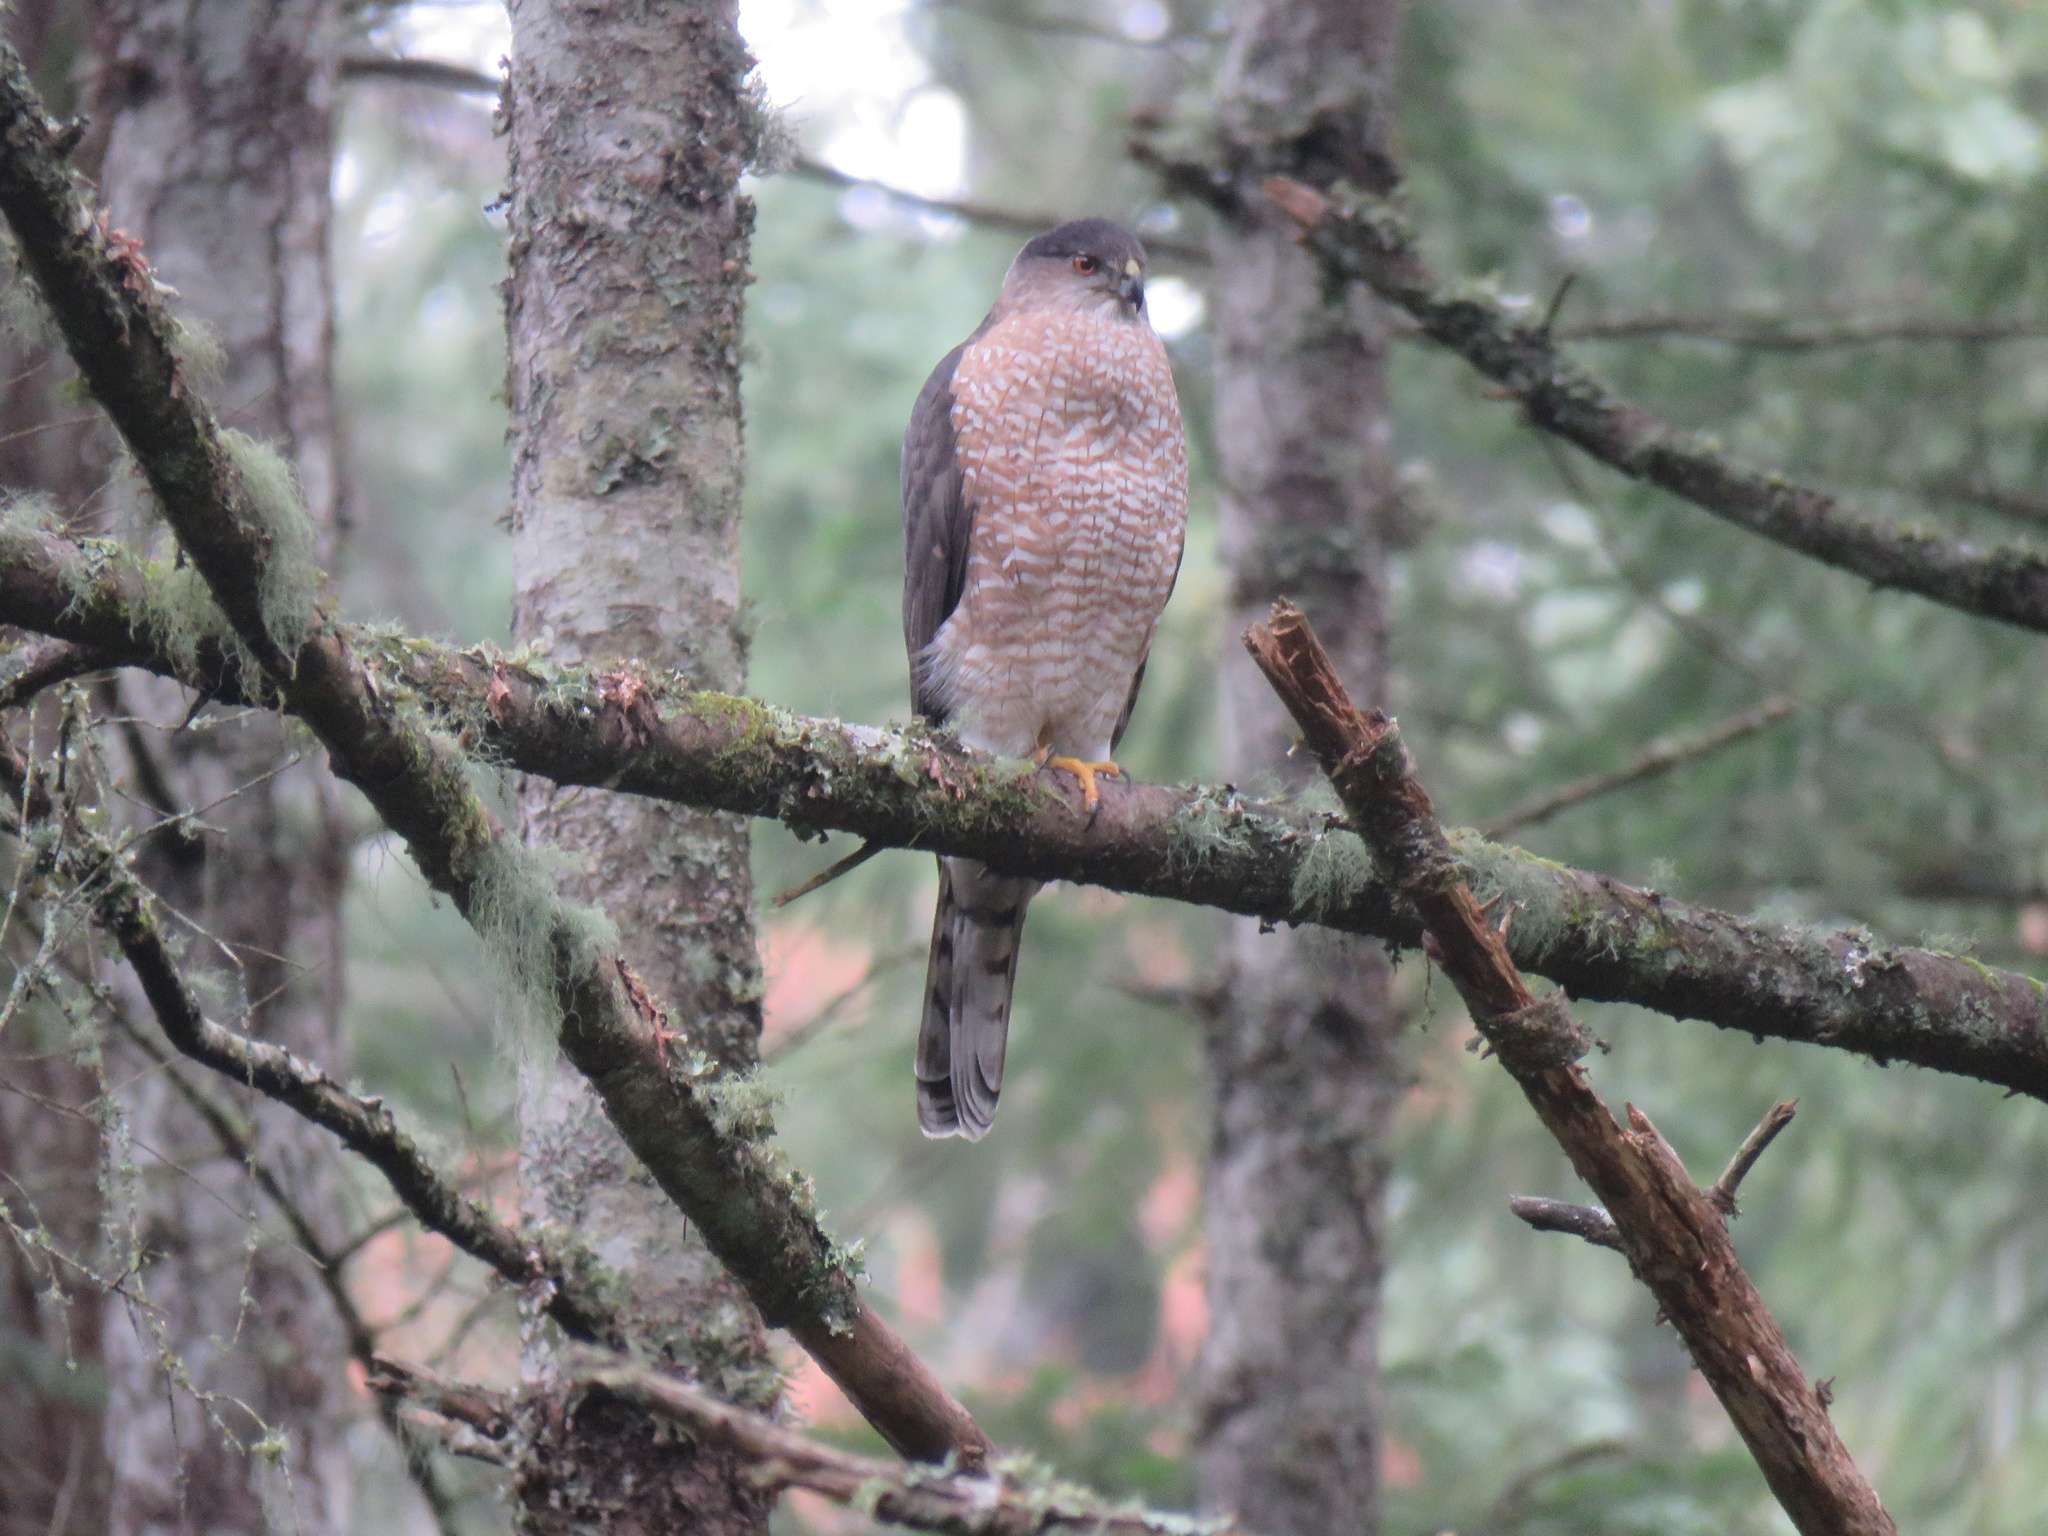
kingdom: Animalia
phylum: Chordata
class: Aves
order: Accipitriformes
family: Accipitridae
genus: Accipiter
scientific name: Accipiter cooperii
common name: Cooper's hawk
